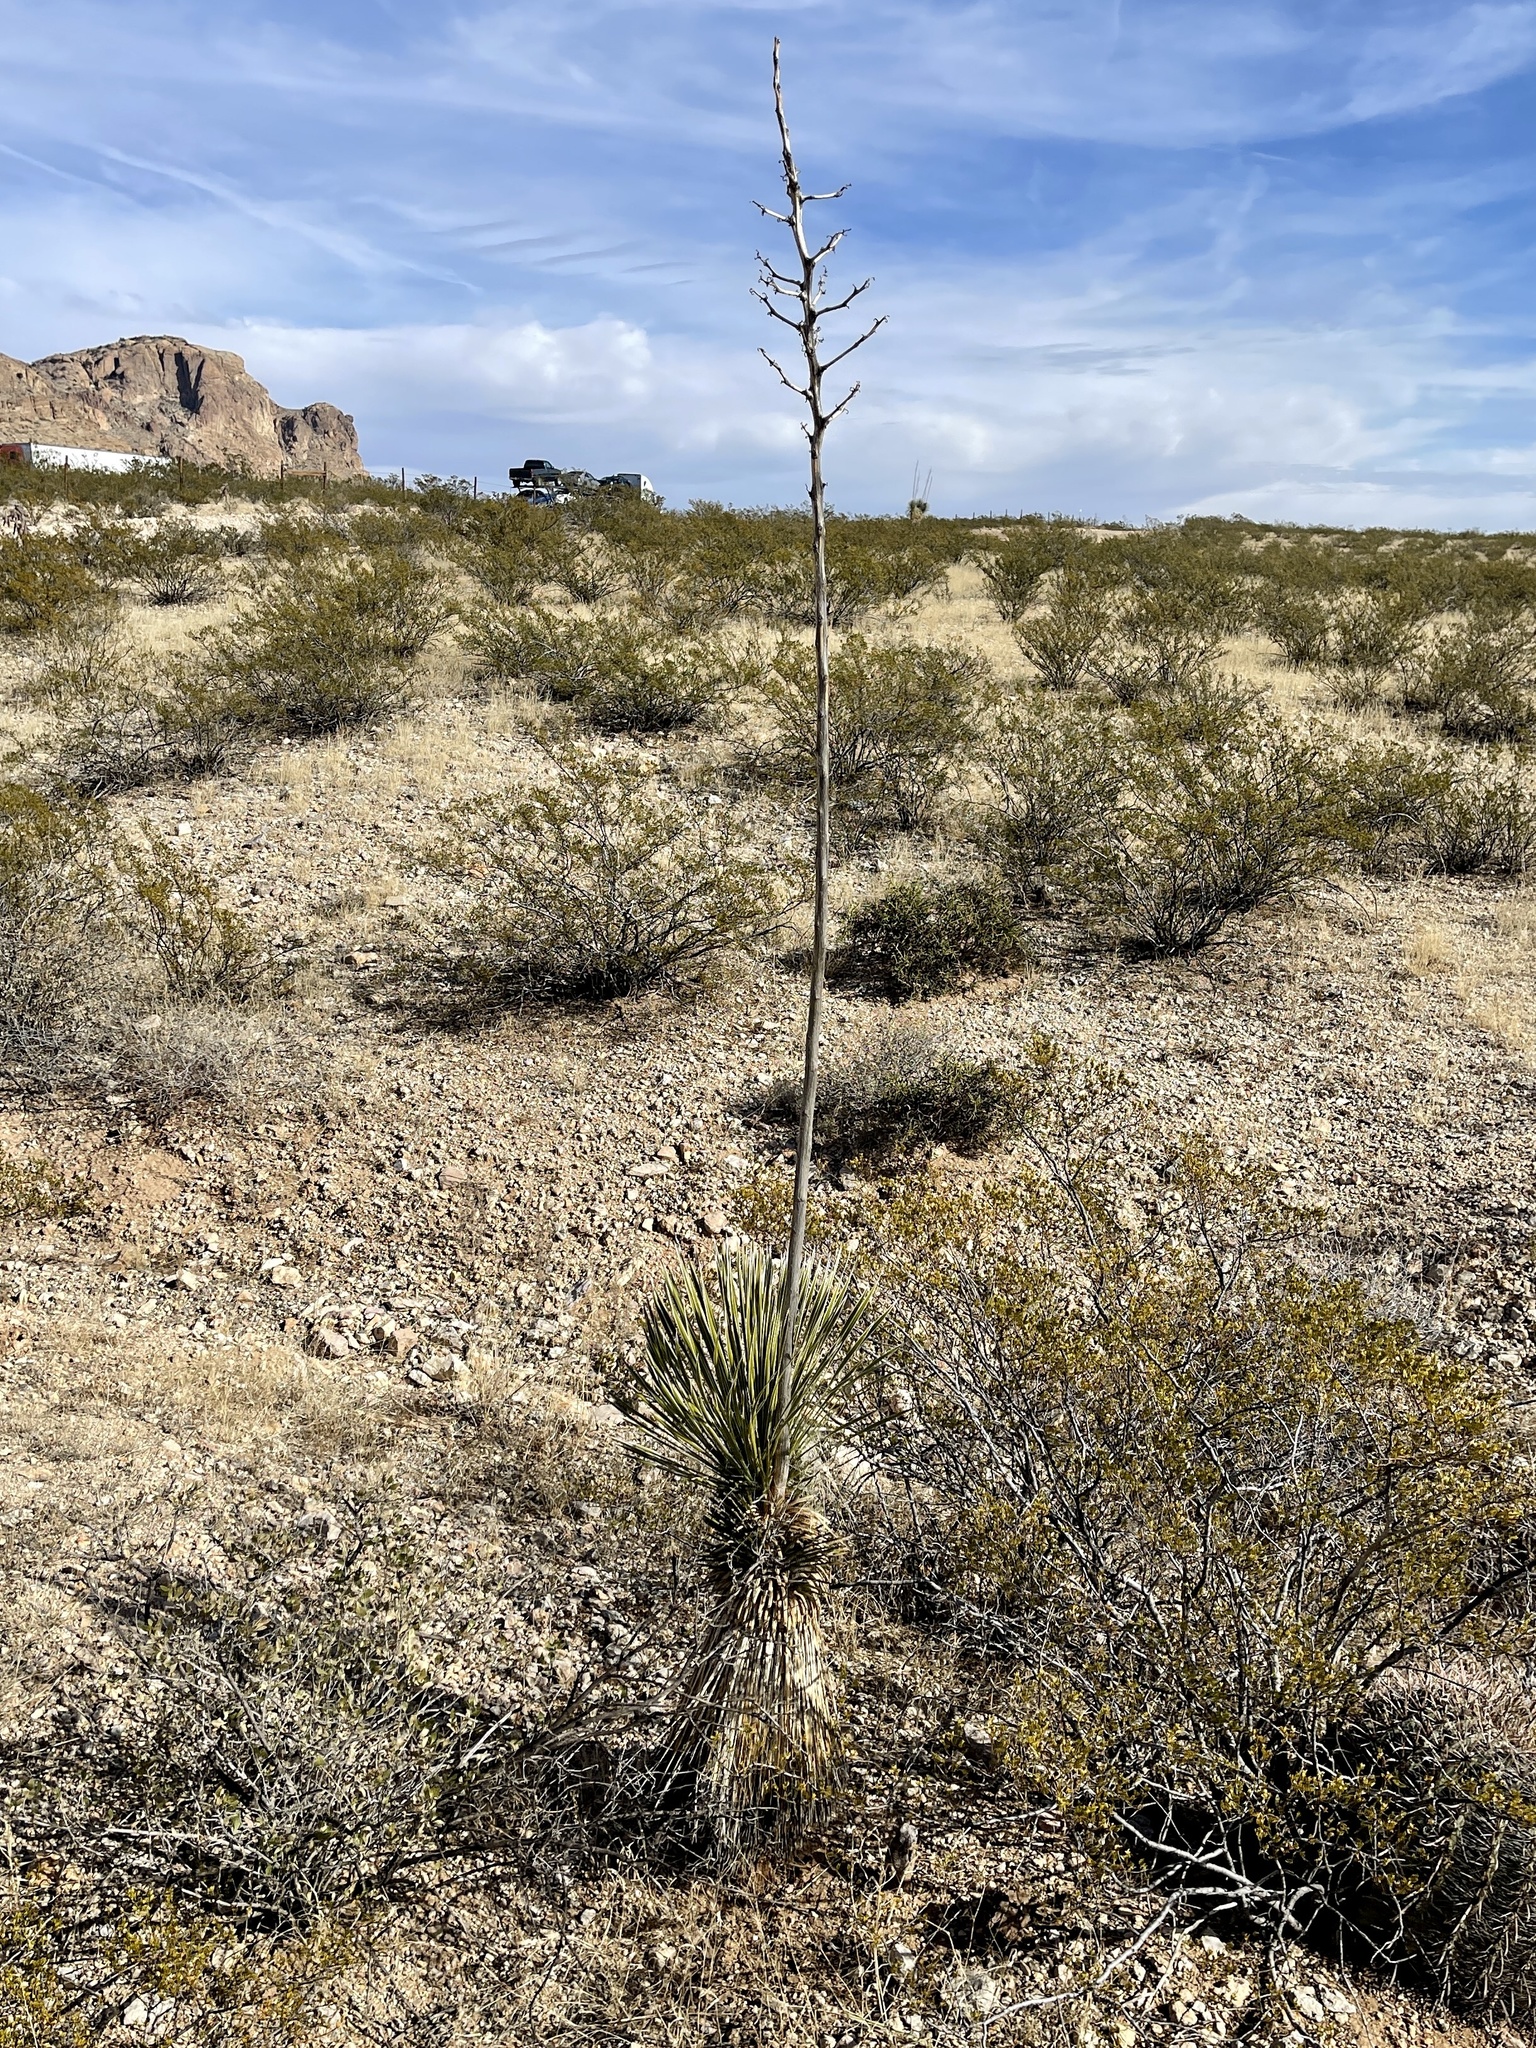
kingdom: Plantae
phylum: Tracheophyta
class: Liliopsida
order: Asparagales
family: Asparagaceae
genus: Yucca
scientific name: Yucca elata
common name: Palmella
